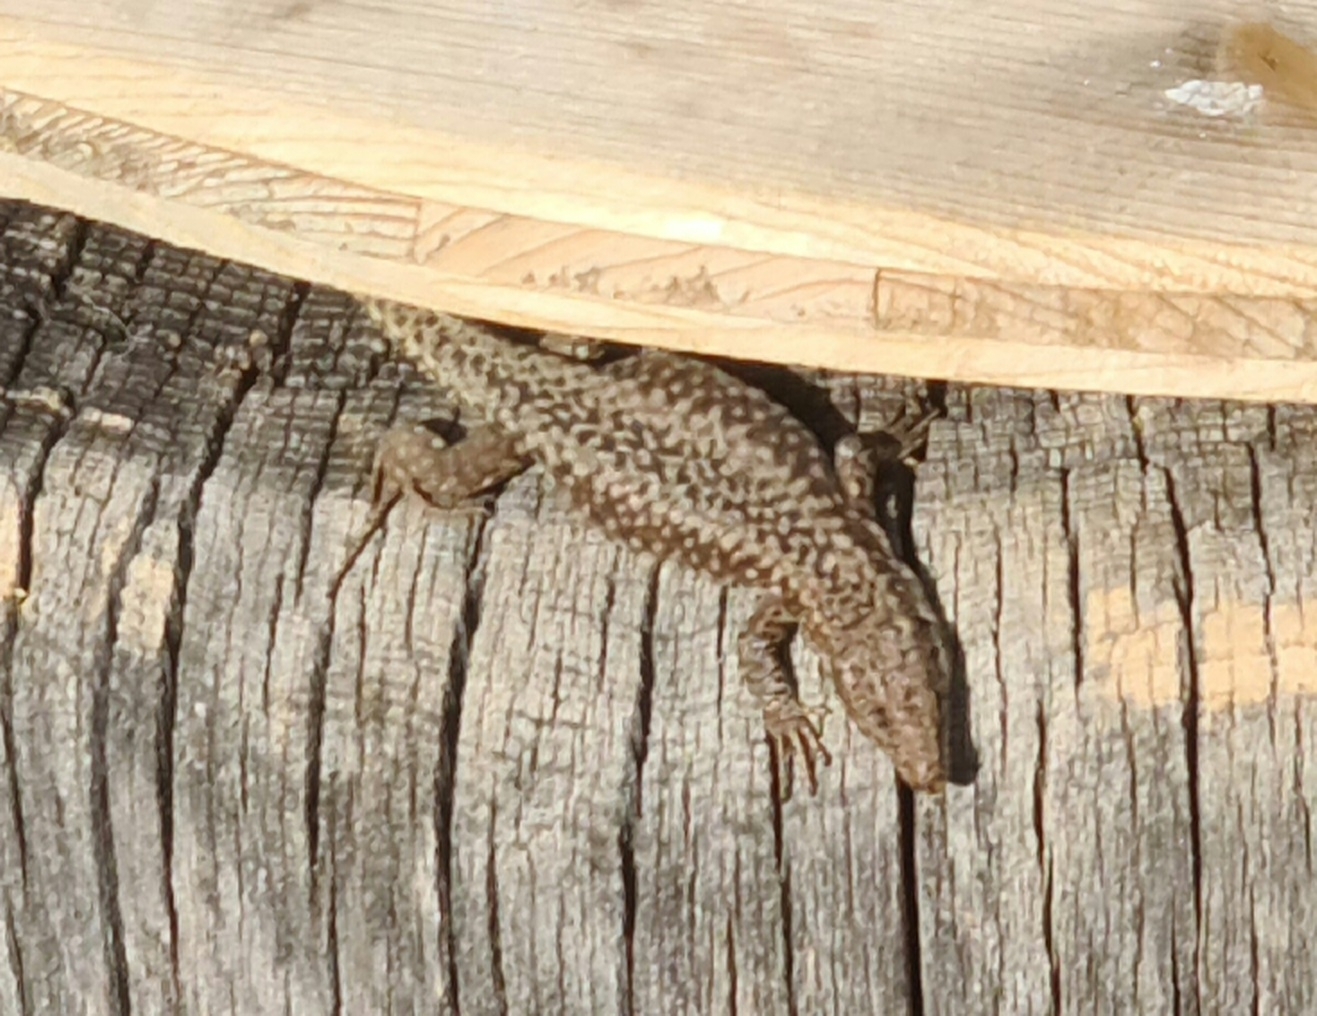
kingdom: Animalia
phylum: Chordata
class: Squamata
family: Lacertidae
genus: Podarcis
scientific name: Podarcis muralis
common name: Common wall lizard
